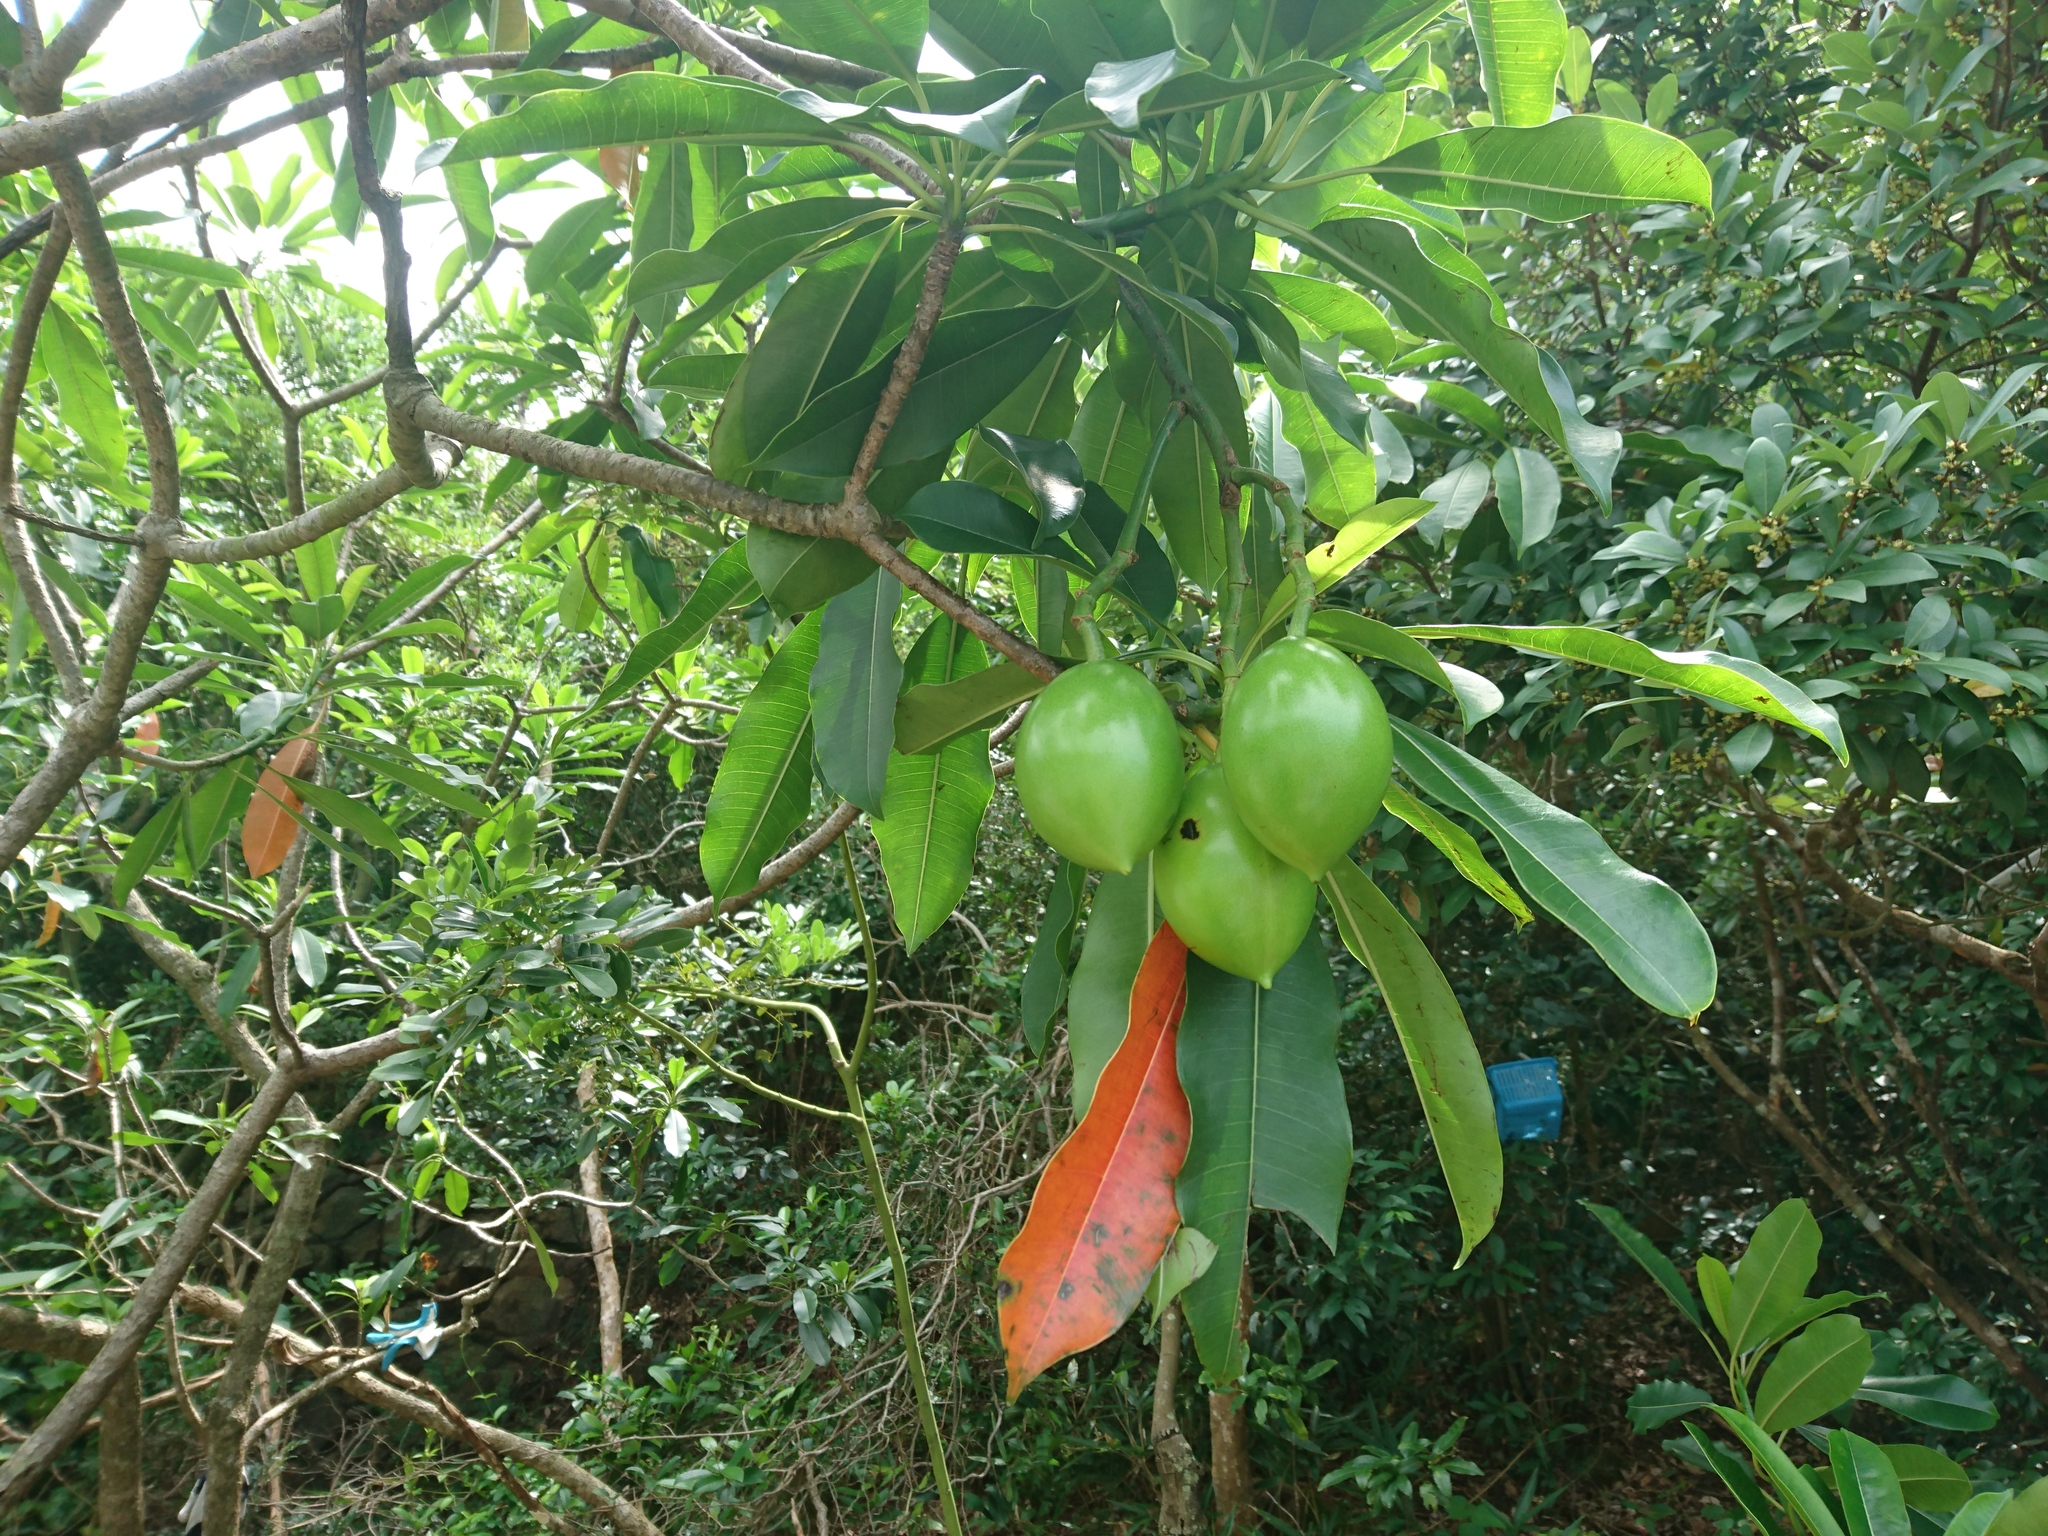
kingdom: Plantae
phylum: Tracheophyta
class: Magnoliopsida
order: Gentianales
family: Apocynaceae
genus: Cerbera
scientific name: Cerbera manghas
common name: Reva
